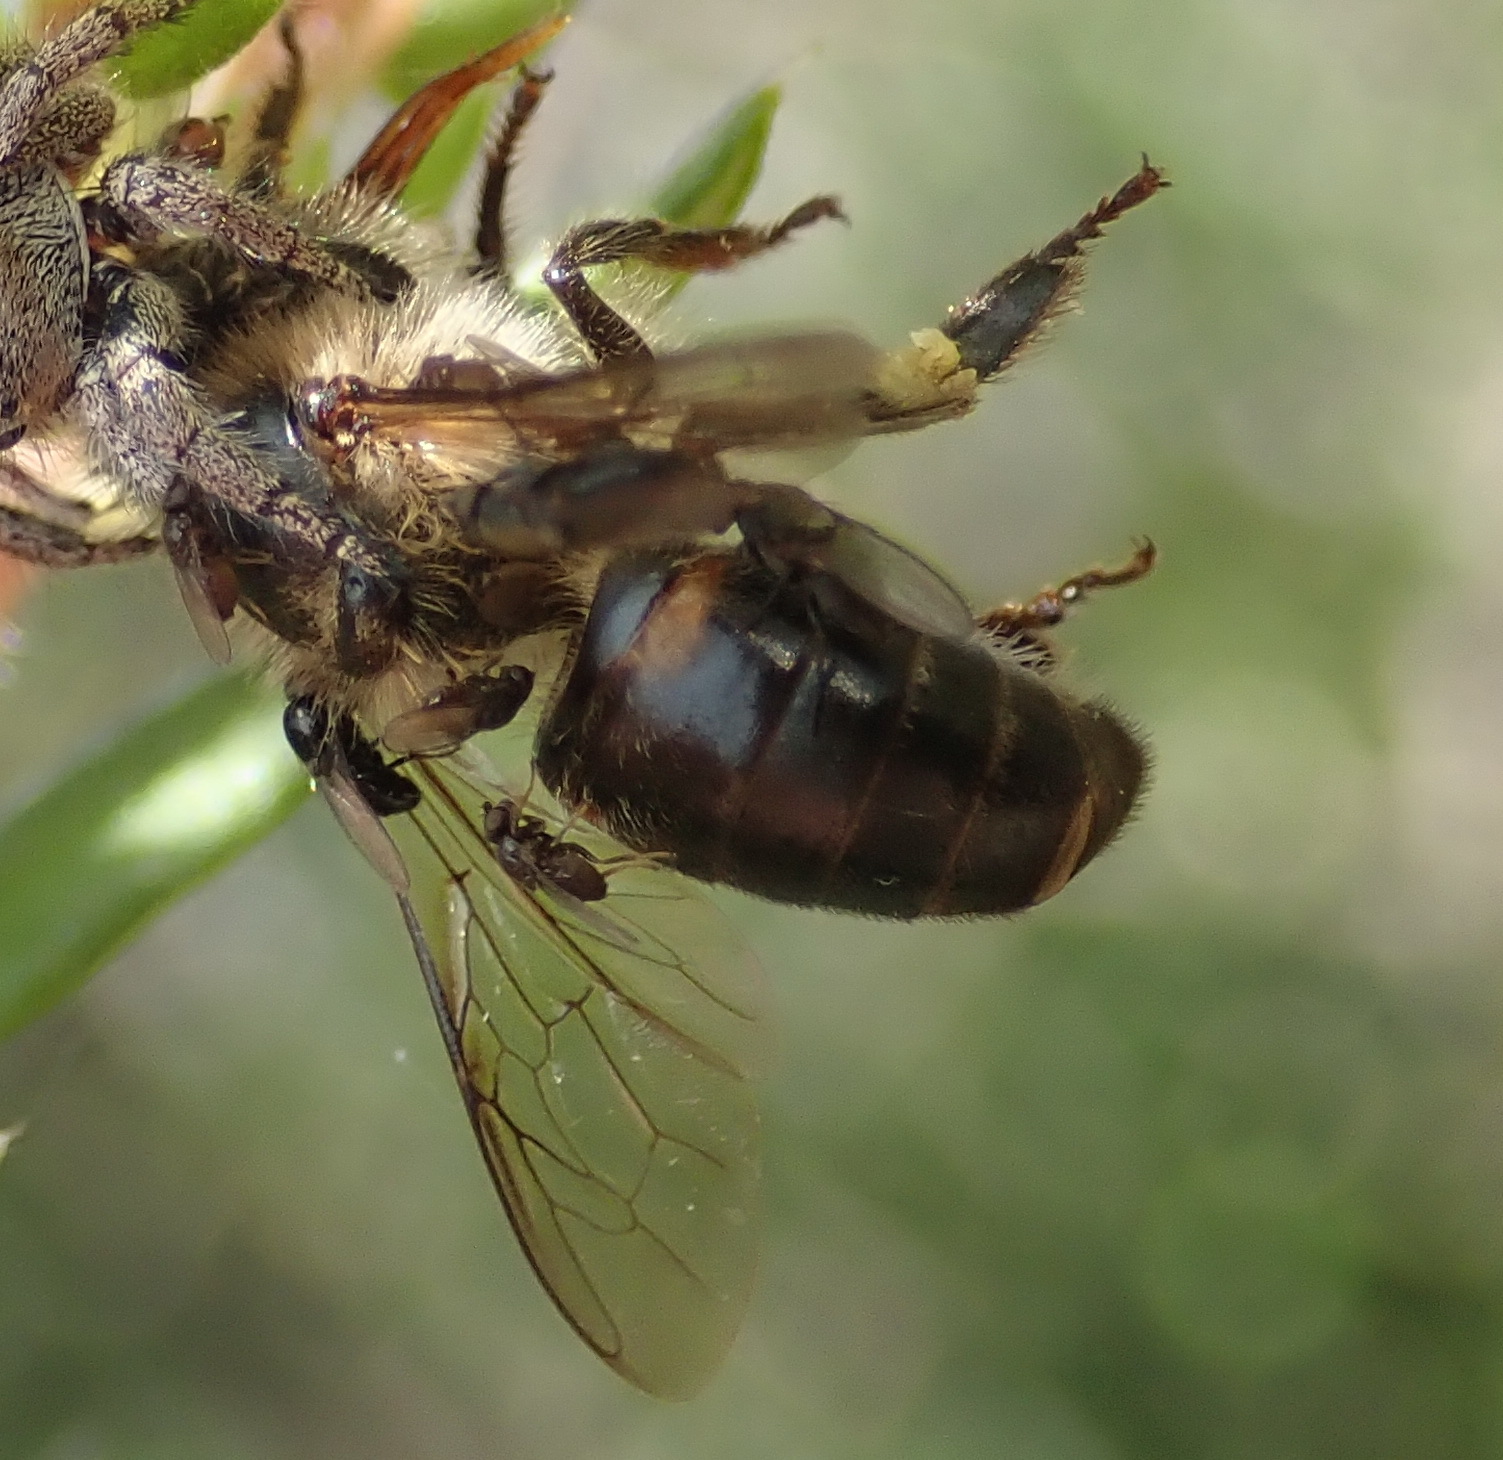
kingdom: Animalia
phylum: Arthropoda
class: Insecta
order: Hymenoptera
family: Apidae
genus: Apis
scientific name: Apis mellifera
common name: Honey bee
